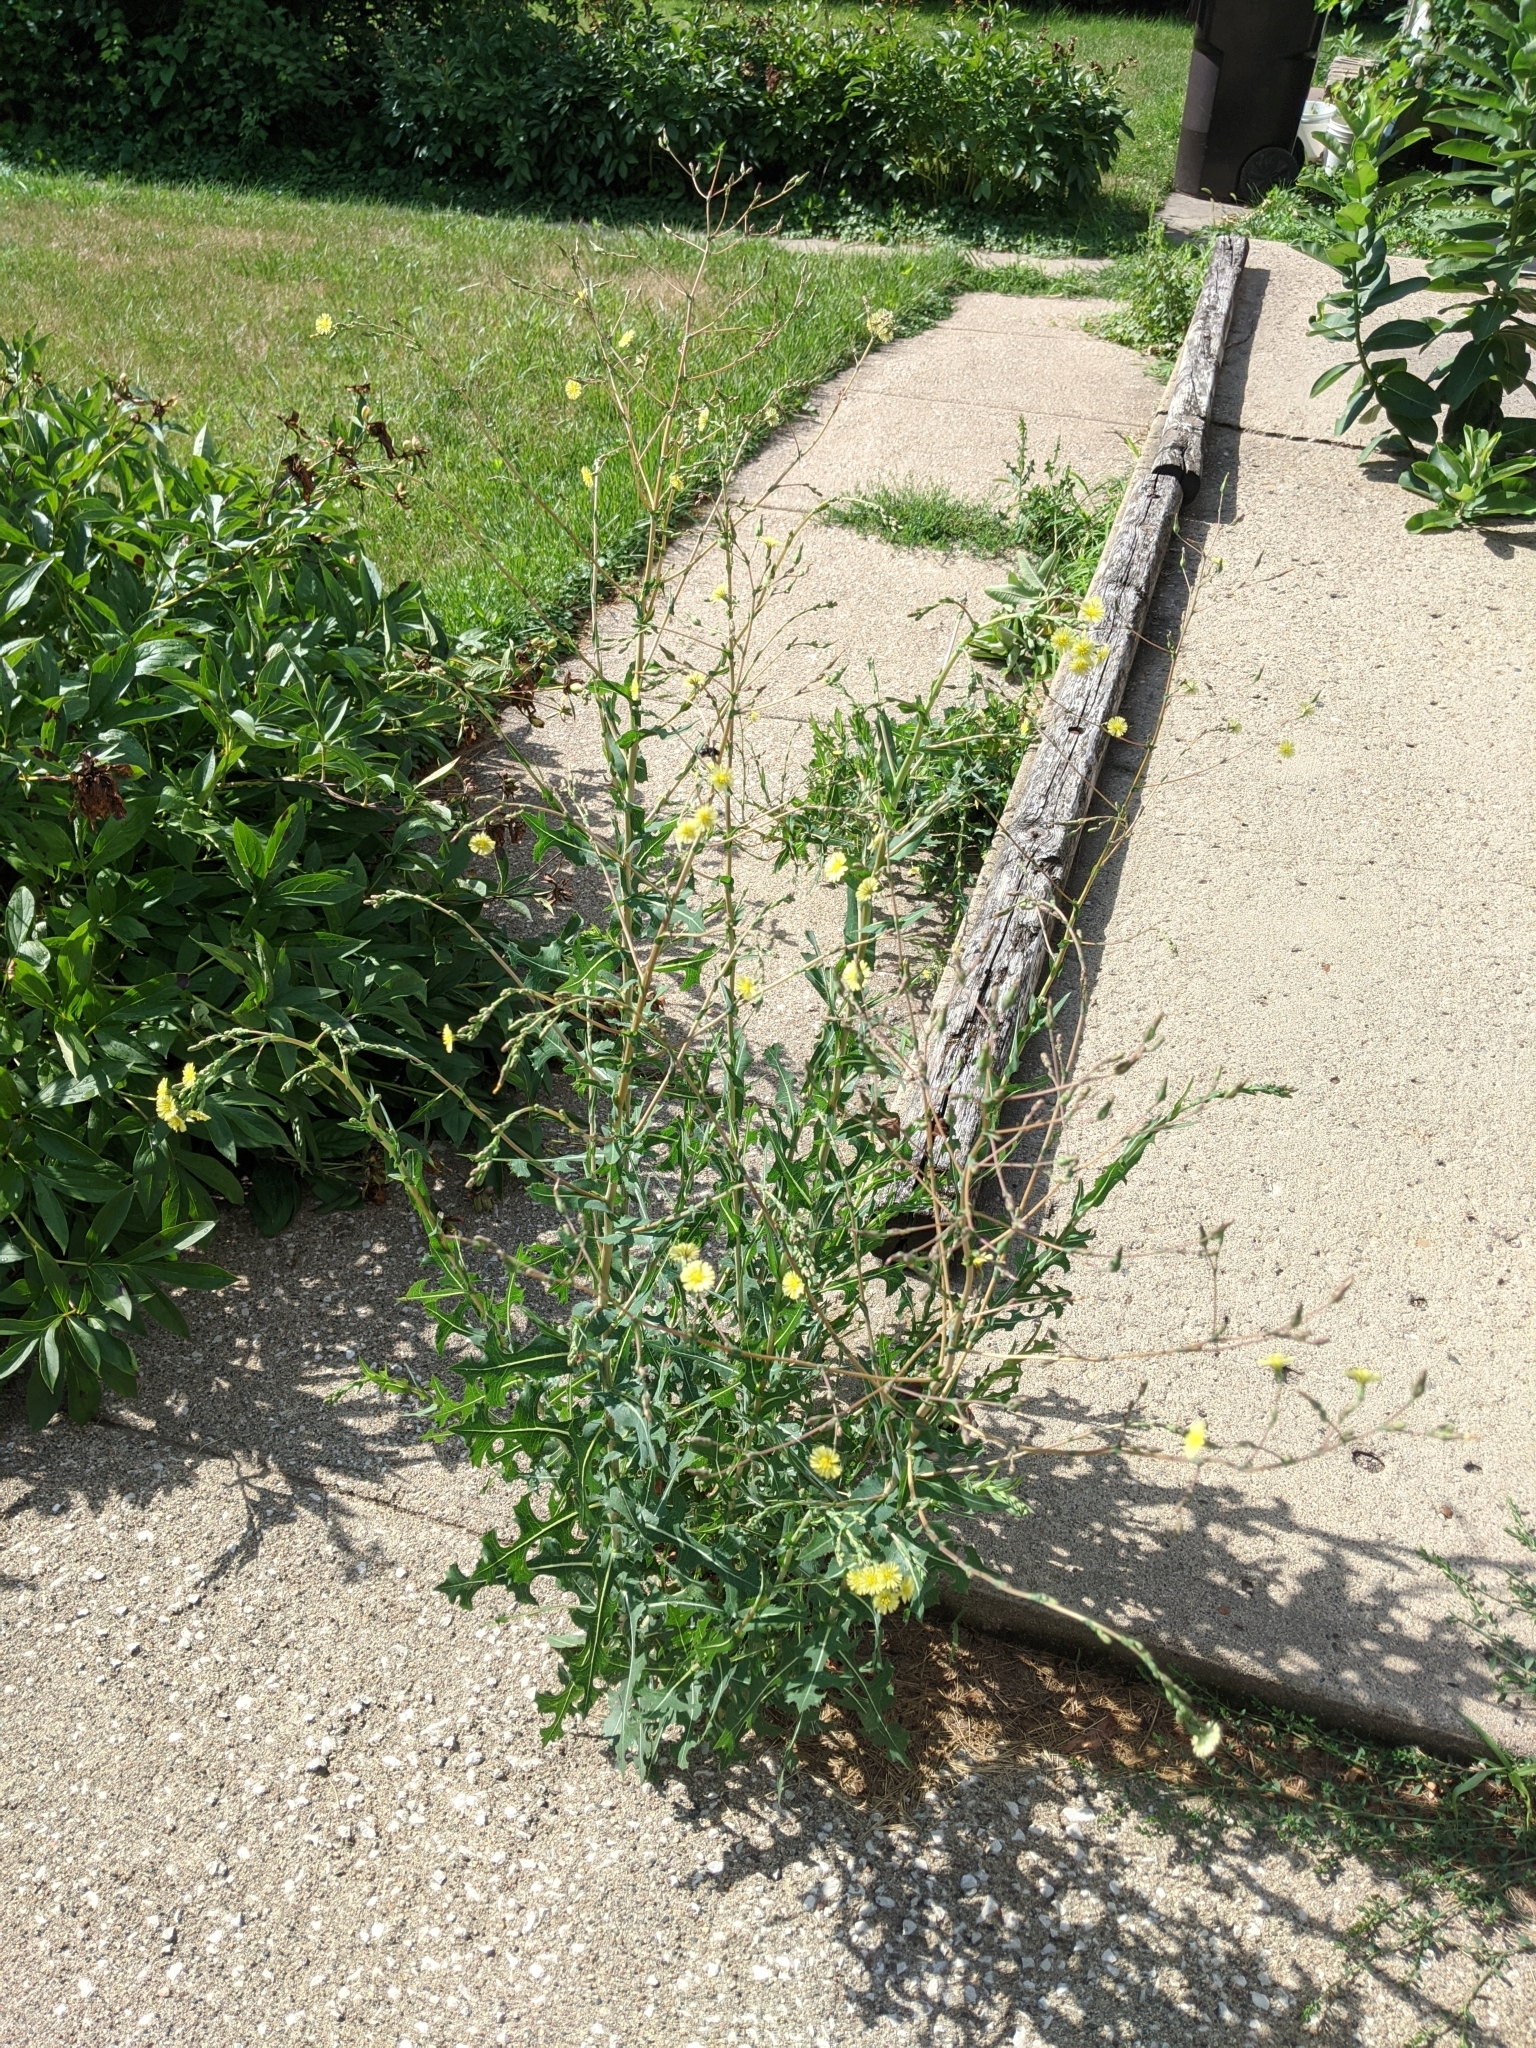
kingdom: Plantae
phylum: Tracheophyta
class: Magnoliopsida
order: Asterales
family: Asteraceae
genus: Lactuca
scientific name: Lactuca serriola
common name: Prickly lettuce
